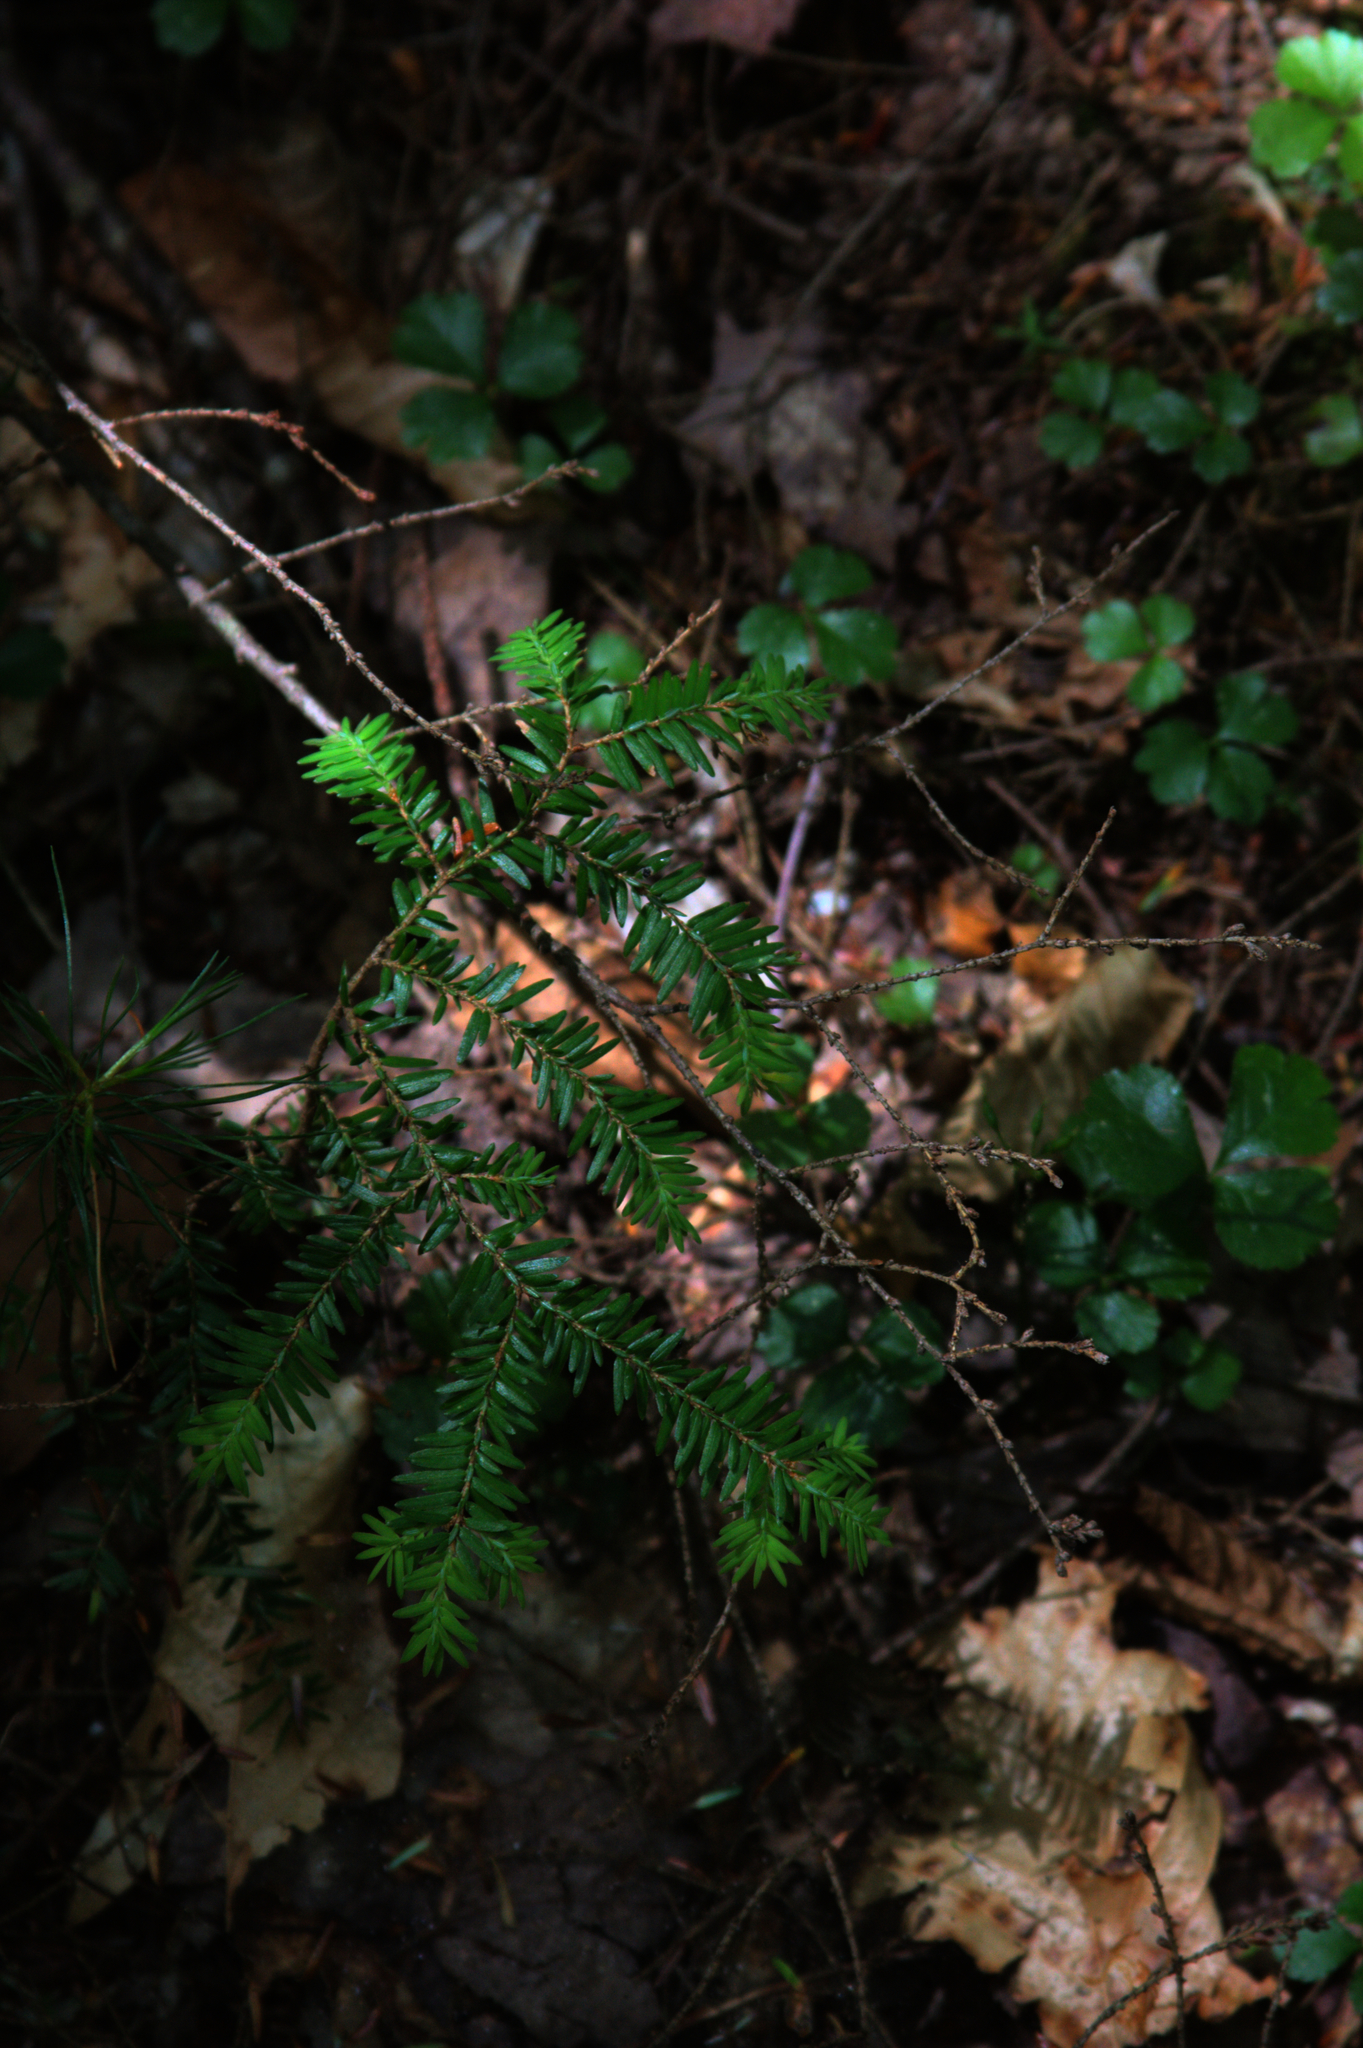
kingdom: Plantae
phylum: Tracheophyta
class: Pinopsida
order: Pinales
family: Pinaceae
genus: Tsuga
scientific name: Tsuga canadensis
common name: Eastern hemlock
